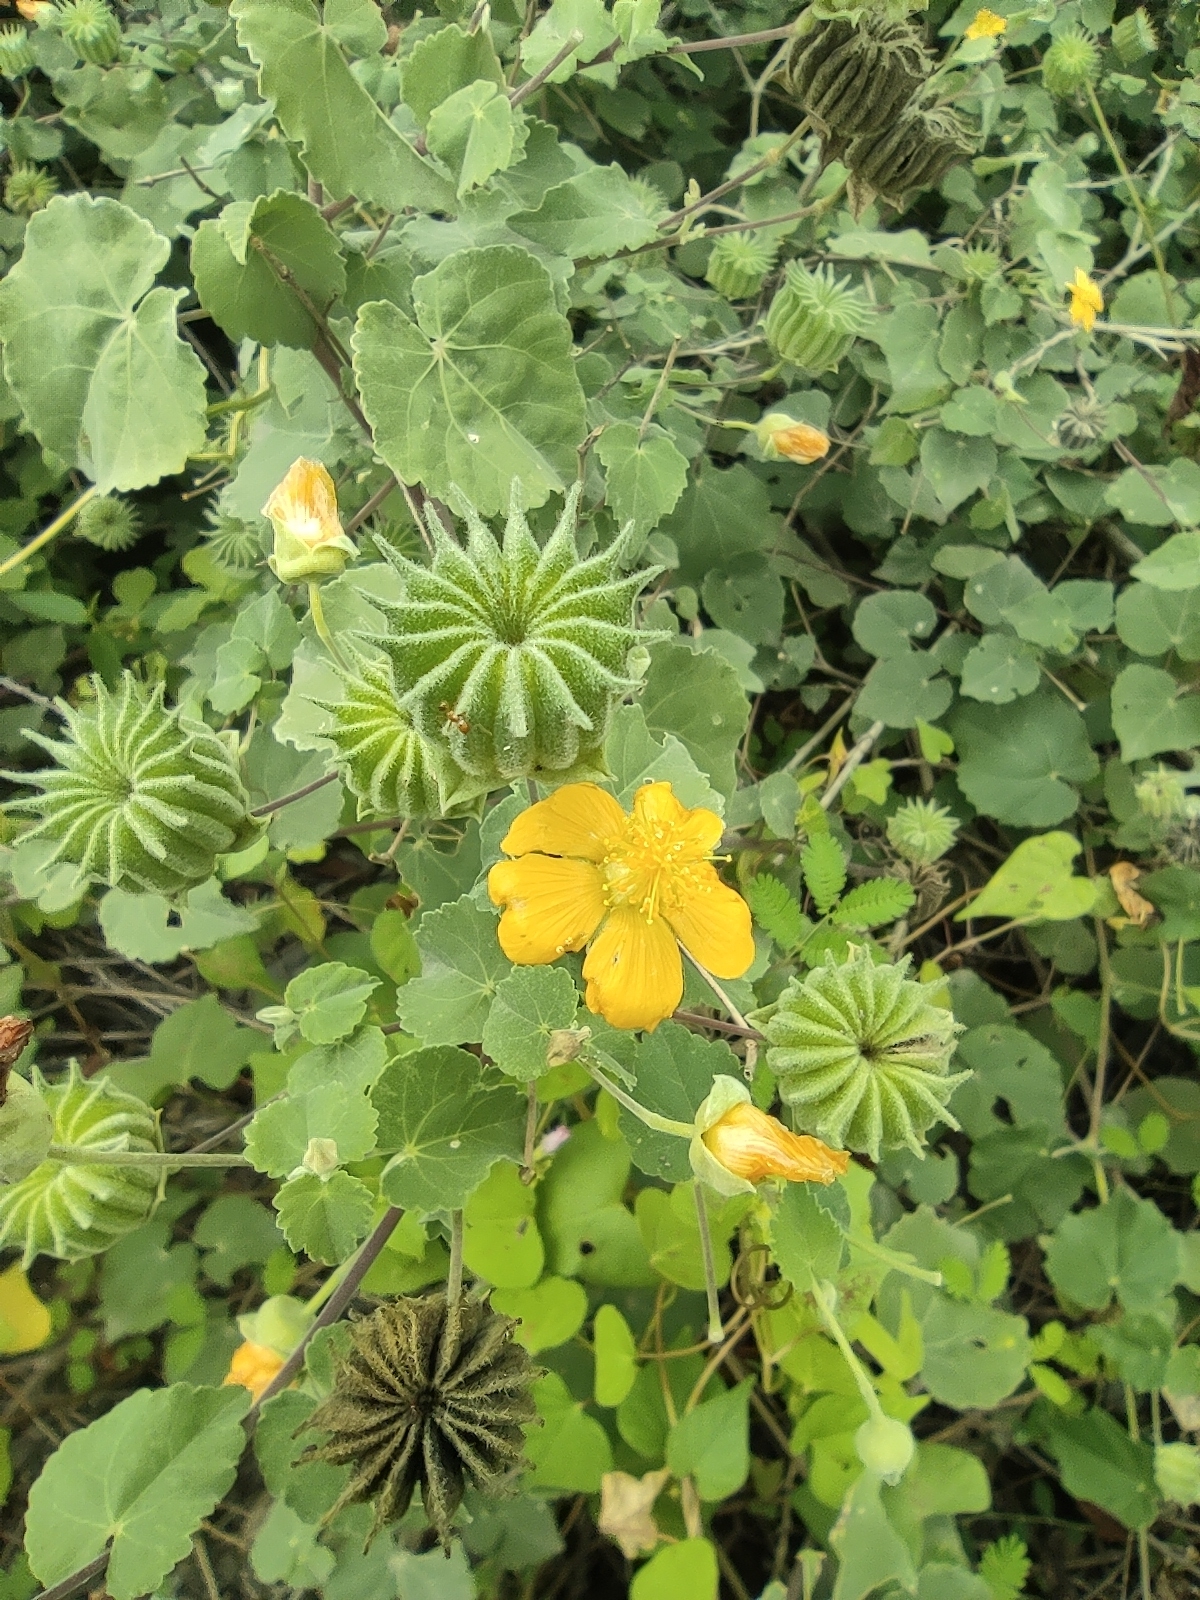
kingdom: Plantae
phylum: Tracheophyta
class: Magnoliopsida
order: Malvales
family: Malvaceae
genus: Abutilon
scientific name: Abutilon indicum
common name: Indian abutilon
